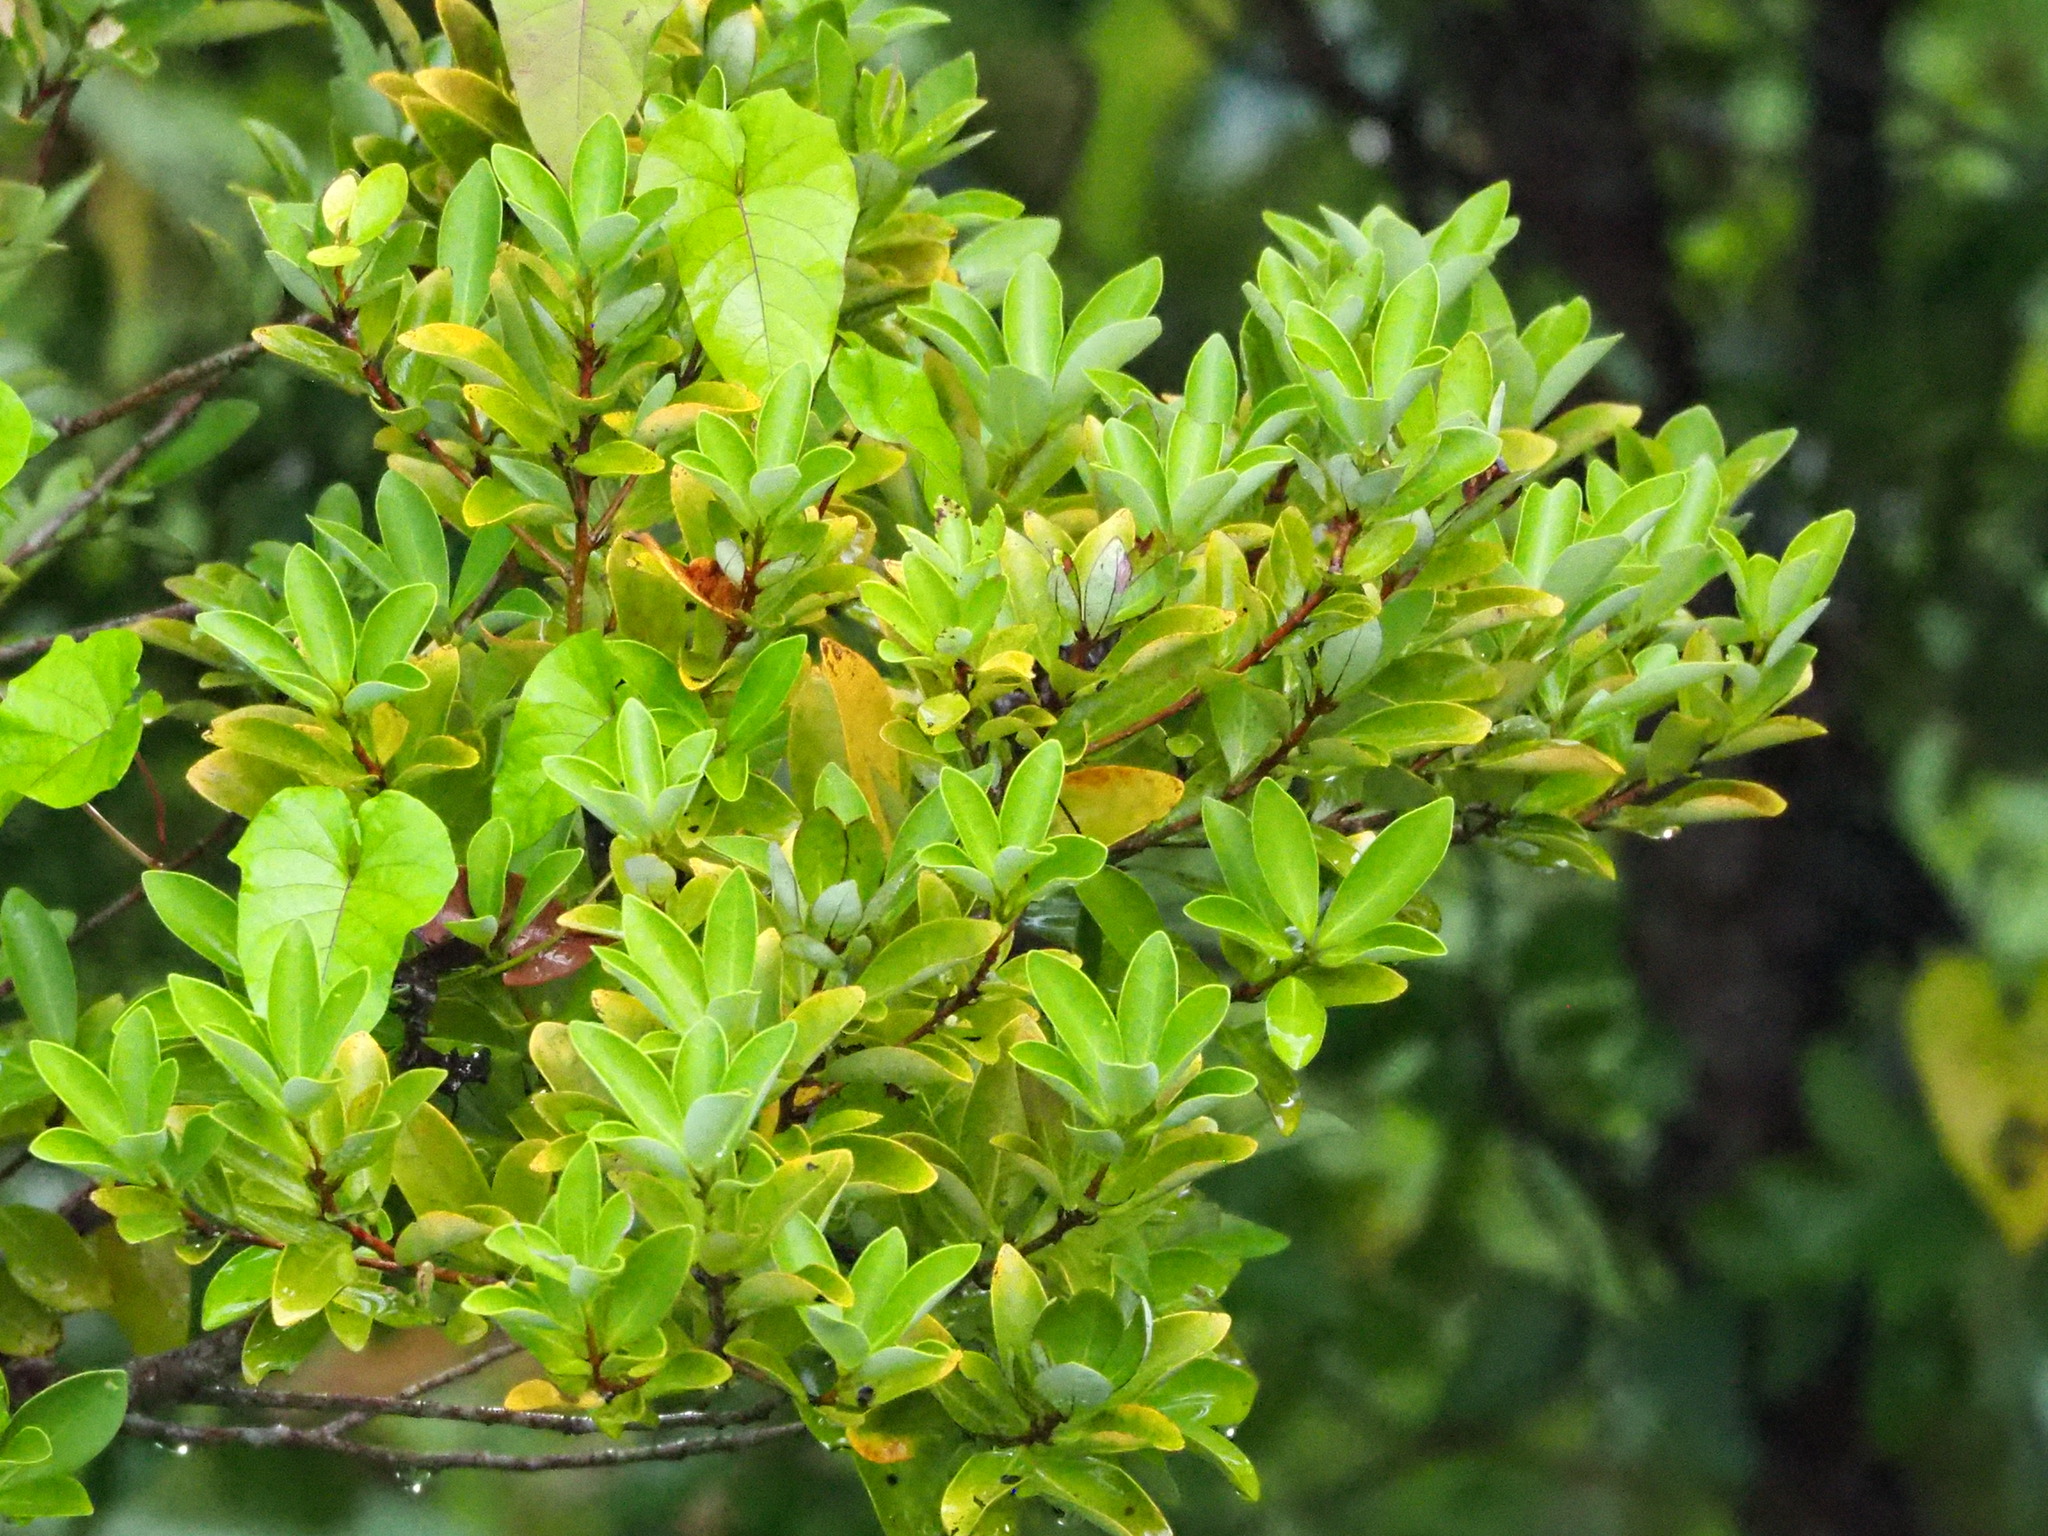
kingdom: Plantae
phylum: Tracheophyta
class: Magnoliopsida
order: Laurales
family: Lauraceae
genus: Machilus
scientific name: Machilus obovatifolia
